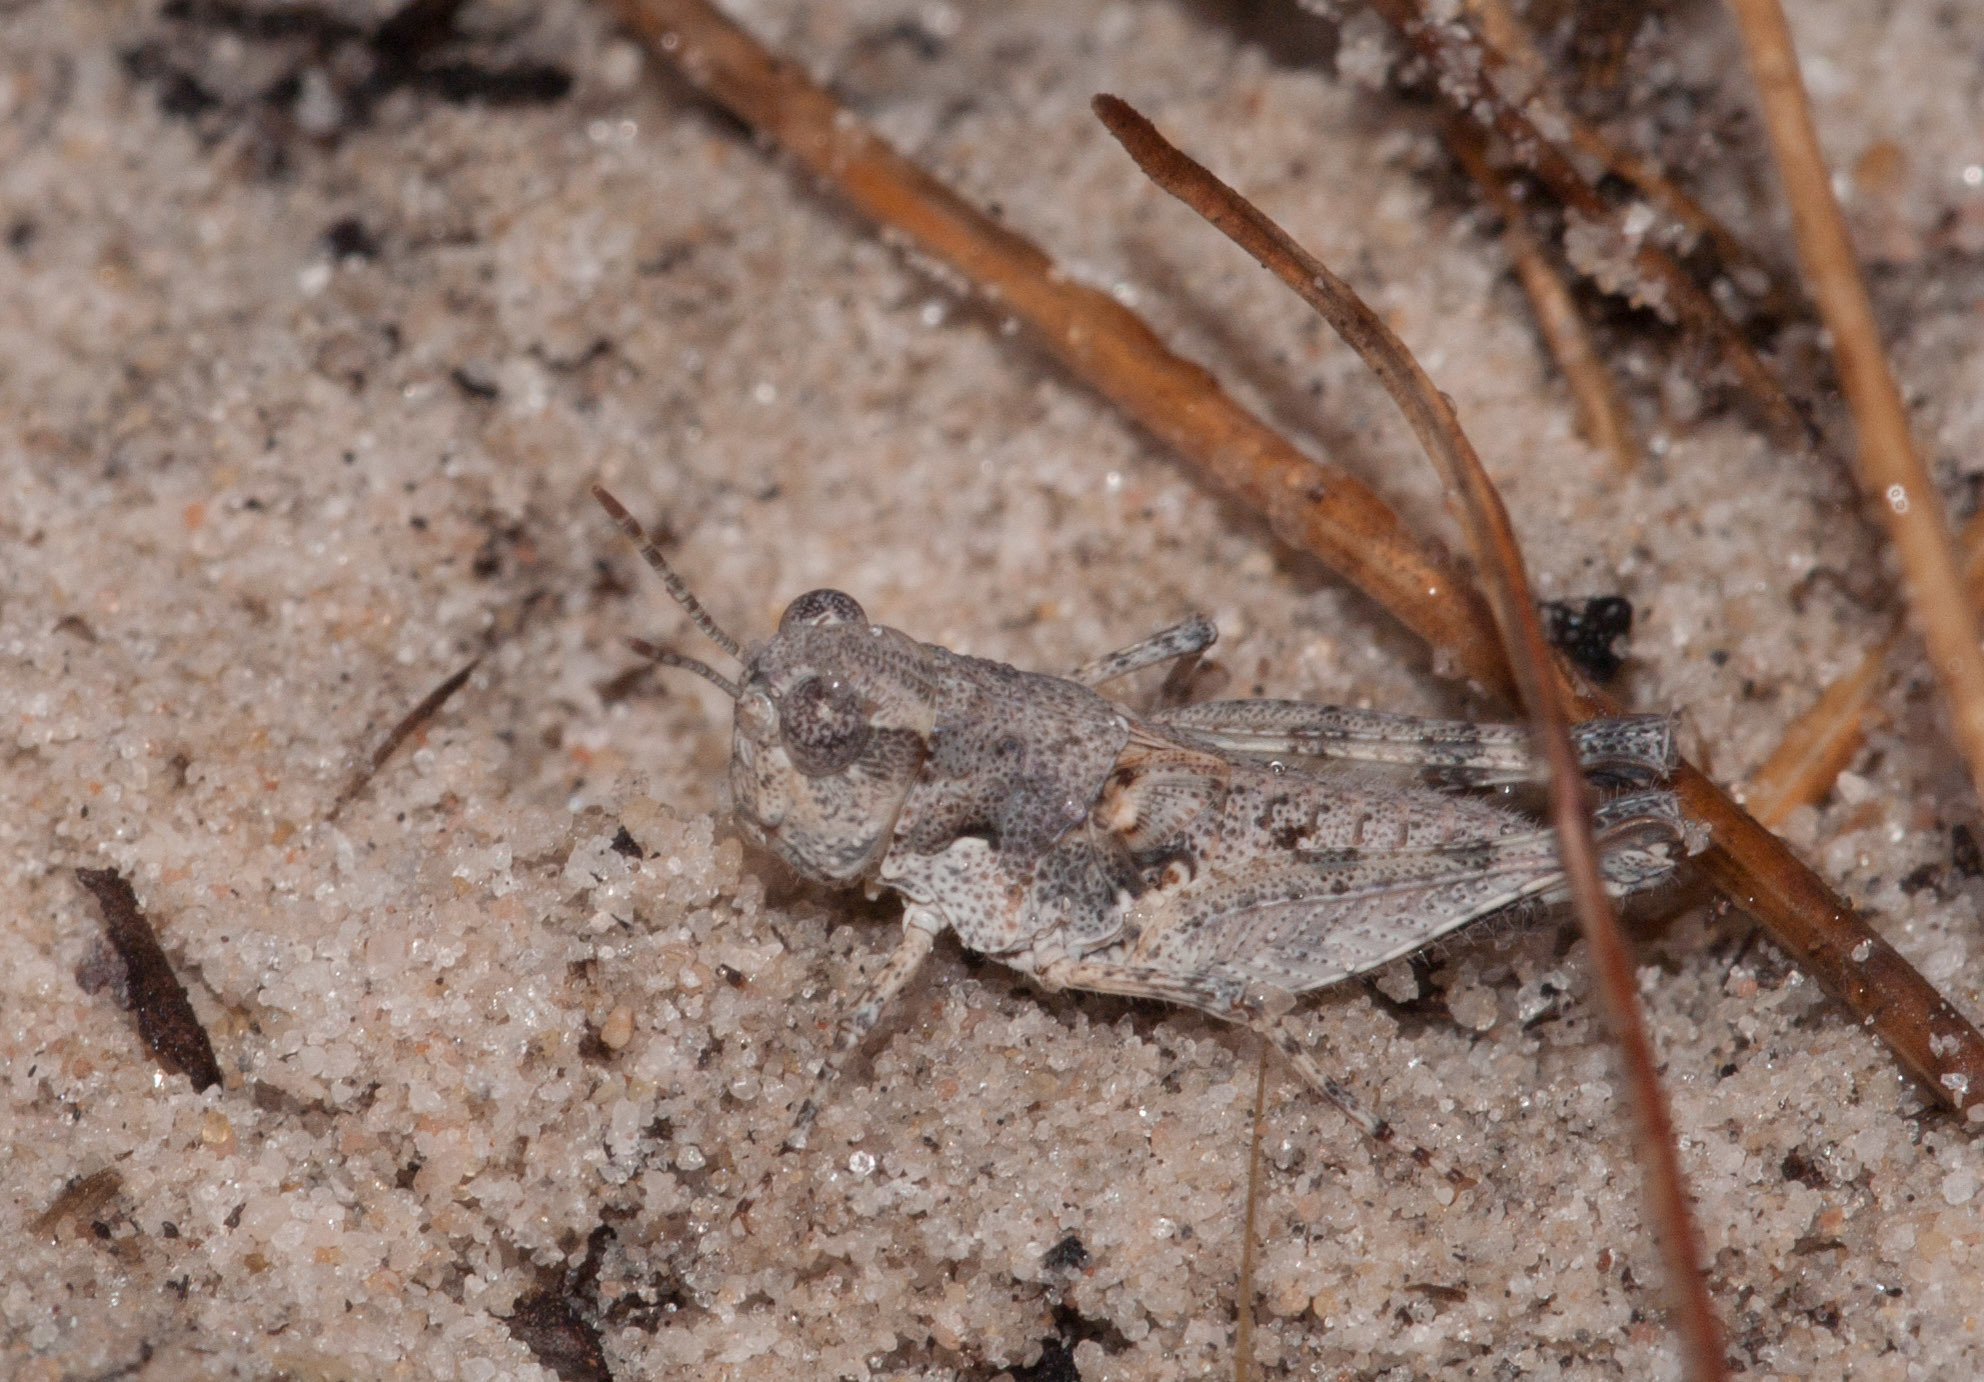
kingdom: Animalia
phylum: Arthropoda
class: Insecta
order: Orthoptera
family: Acrididae
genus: Pycnostictus
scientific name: Pycnostictus seriatus
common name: Common bandwing
